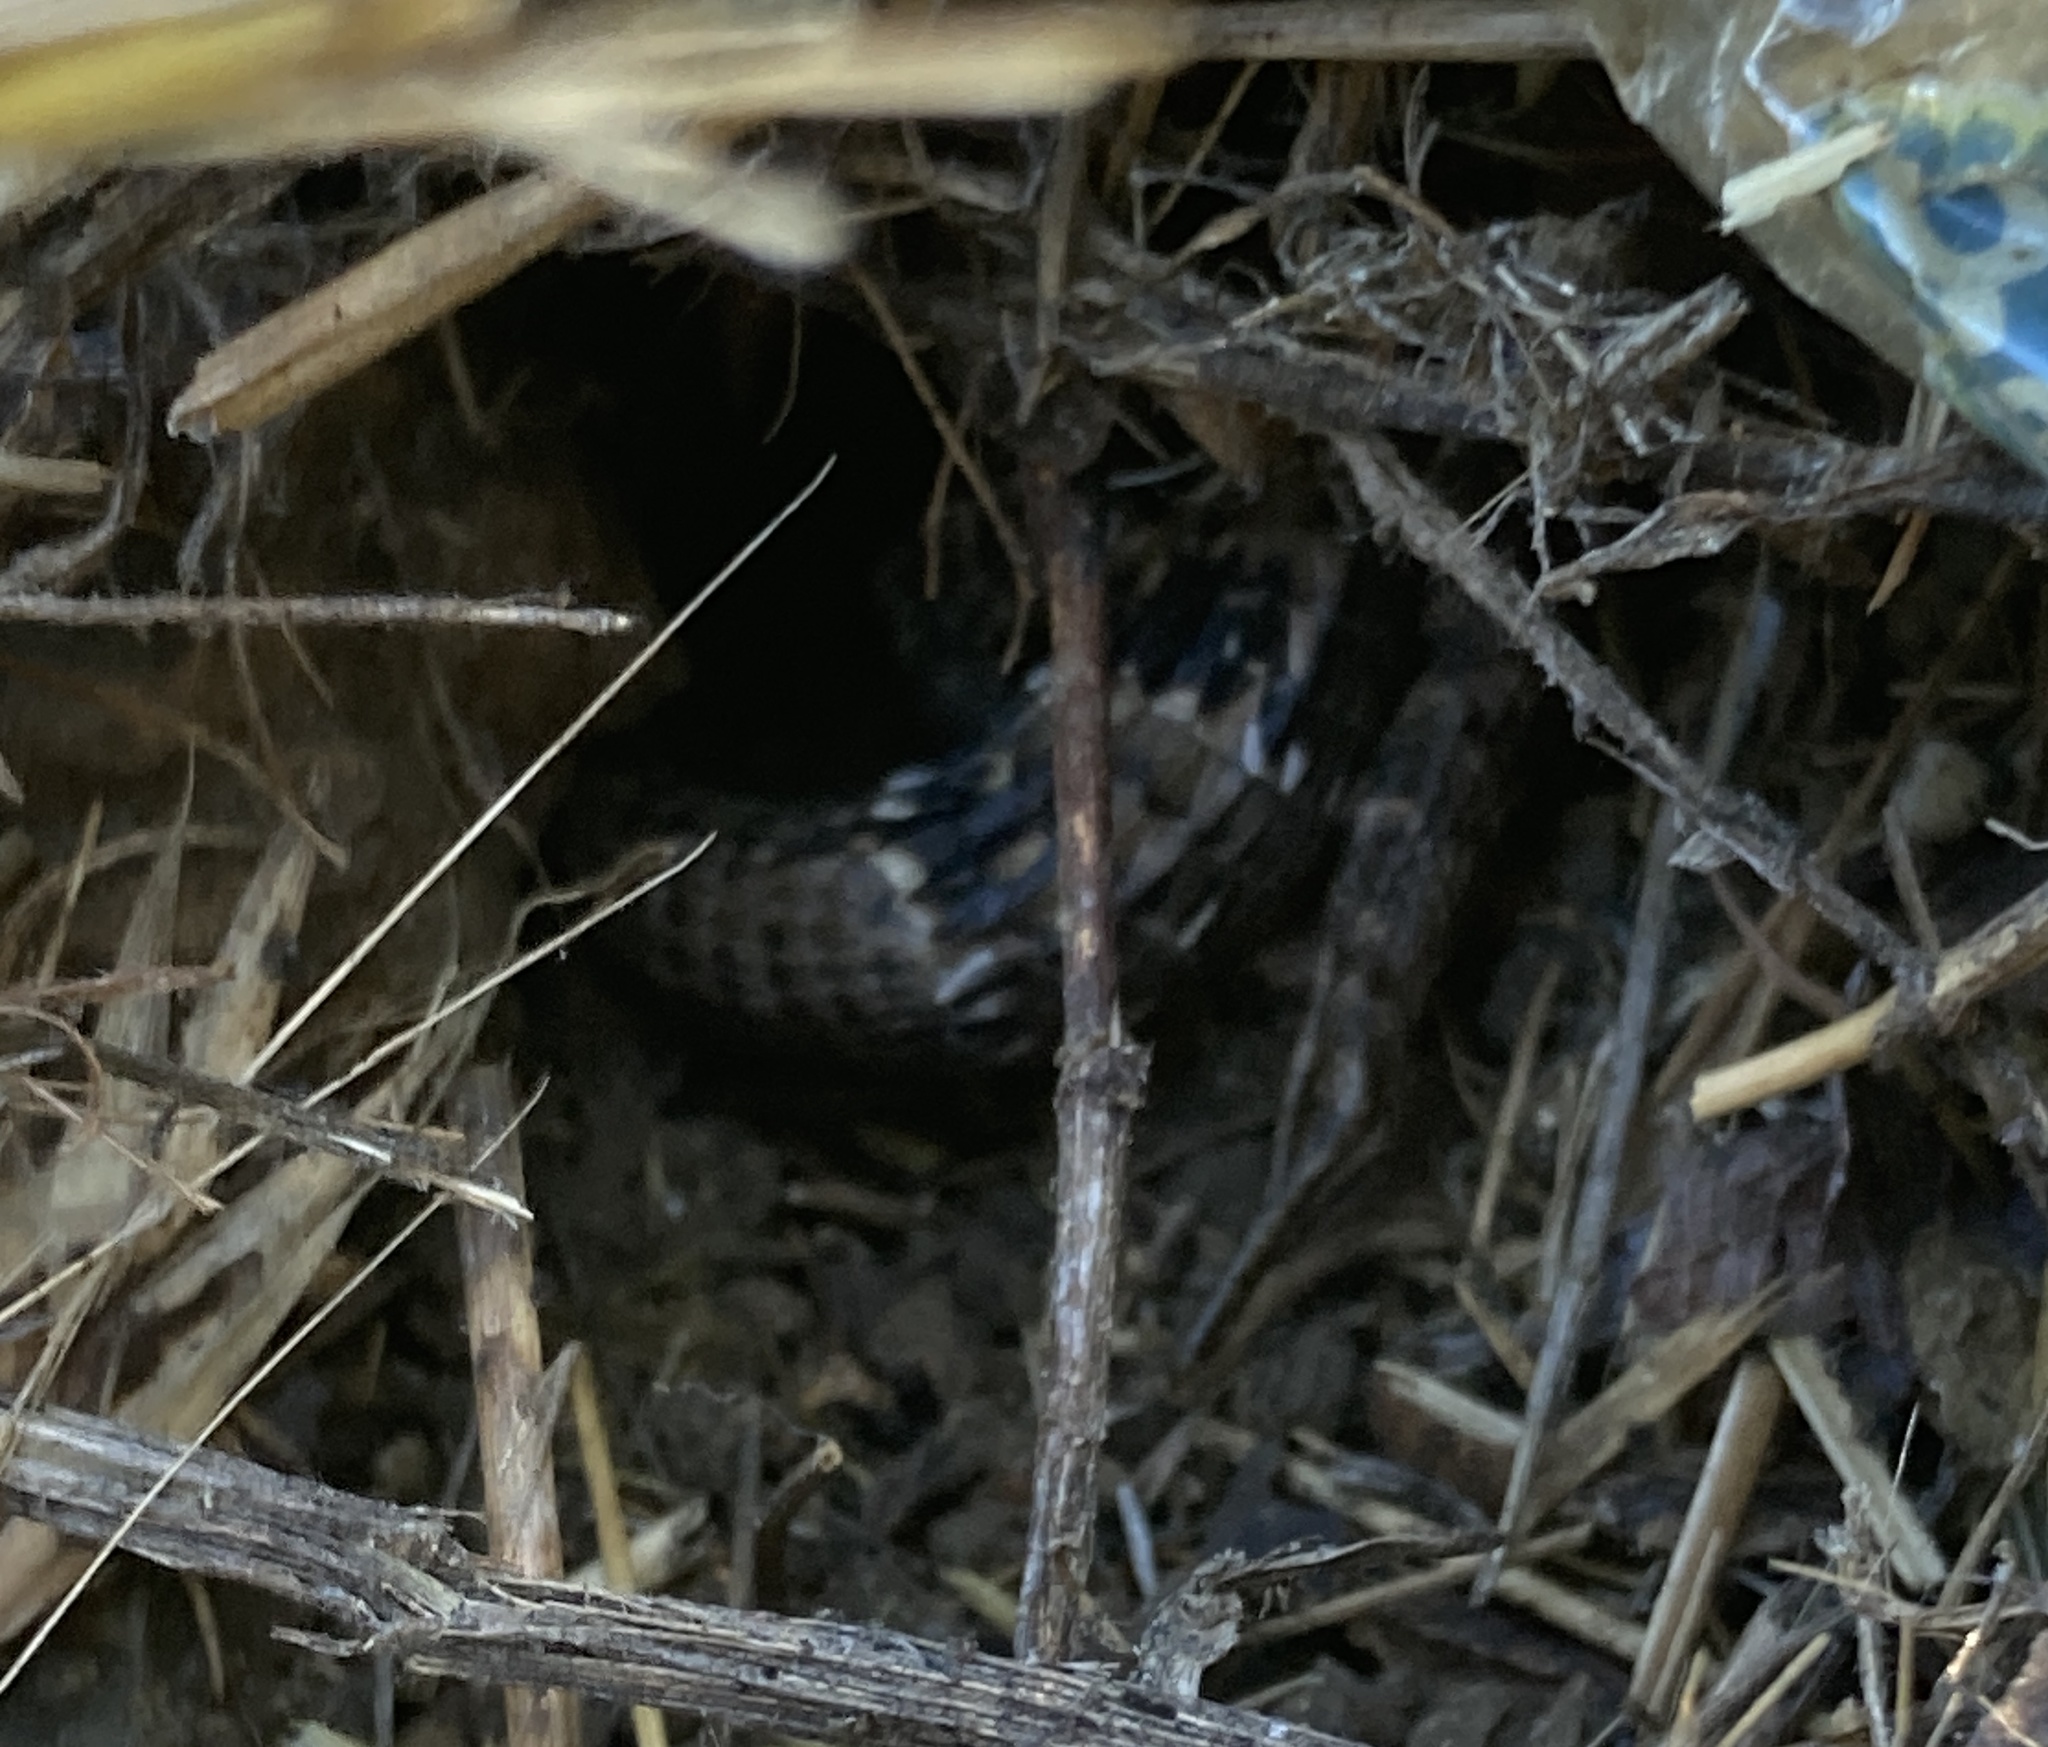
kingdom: Animalia
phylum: Chordata
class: Squamata
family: Anguidae
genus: Elgaria
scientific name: Elgaria multicarinata
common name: Southern alligator lizard
